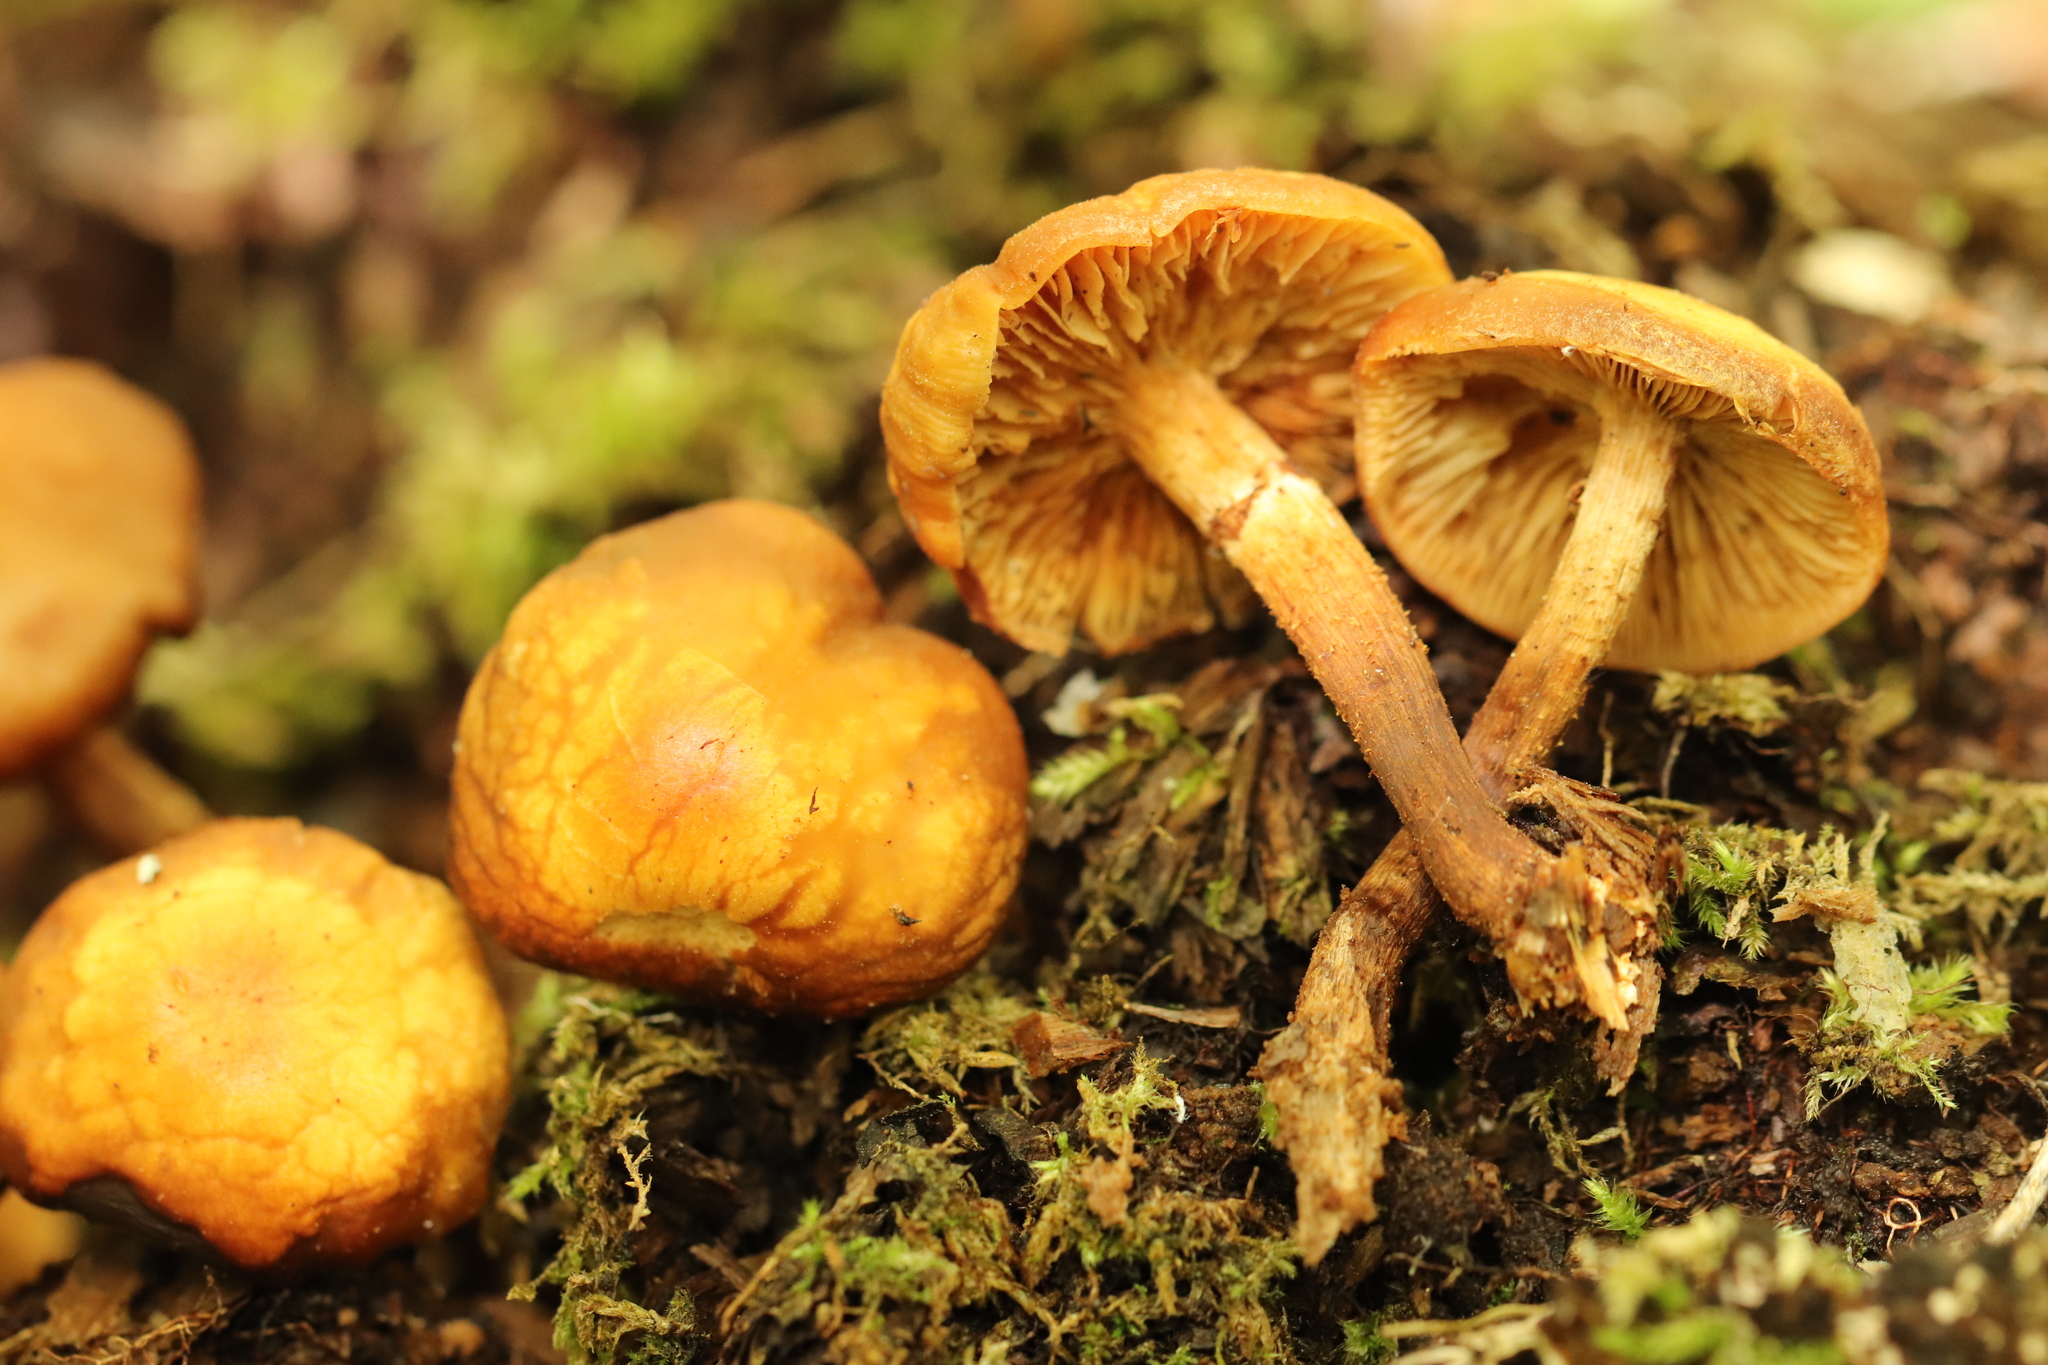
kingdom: Fungi
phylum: Basidiomycota
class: Agaricomycetes
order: Agaricales
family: Strophariaceae
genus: Kuehneromyces
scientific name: Kuehneromyces mutabilis
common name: Sheathed woodtuft
